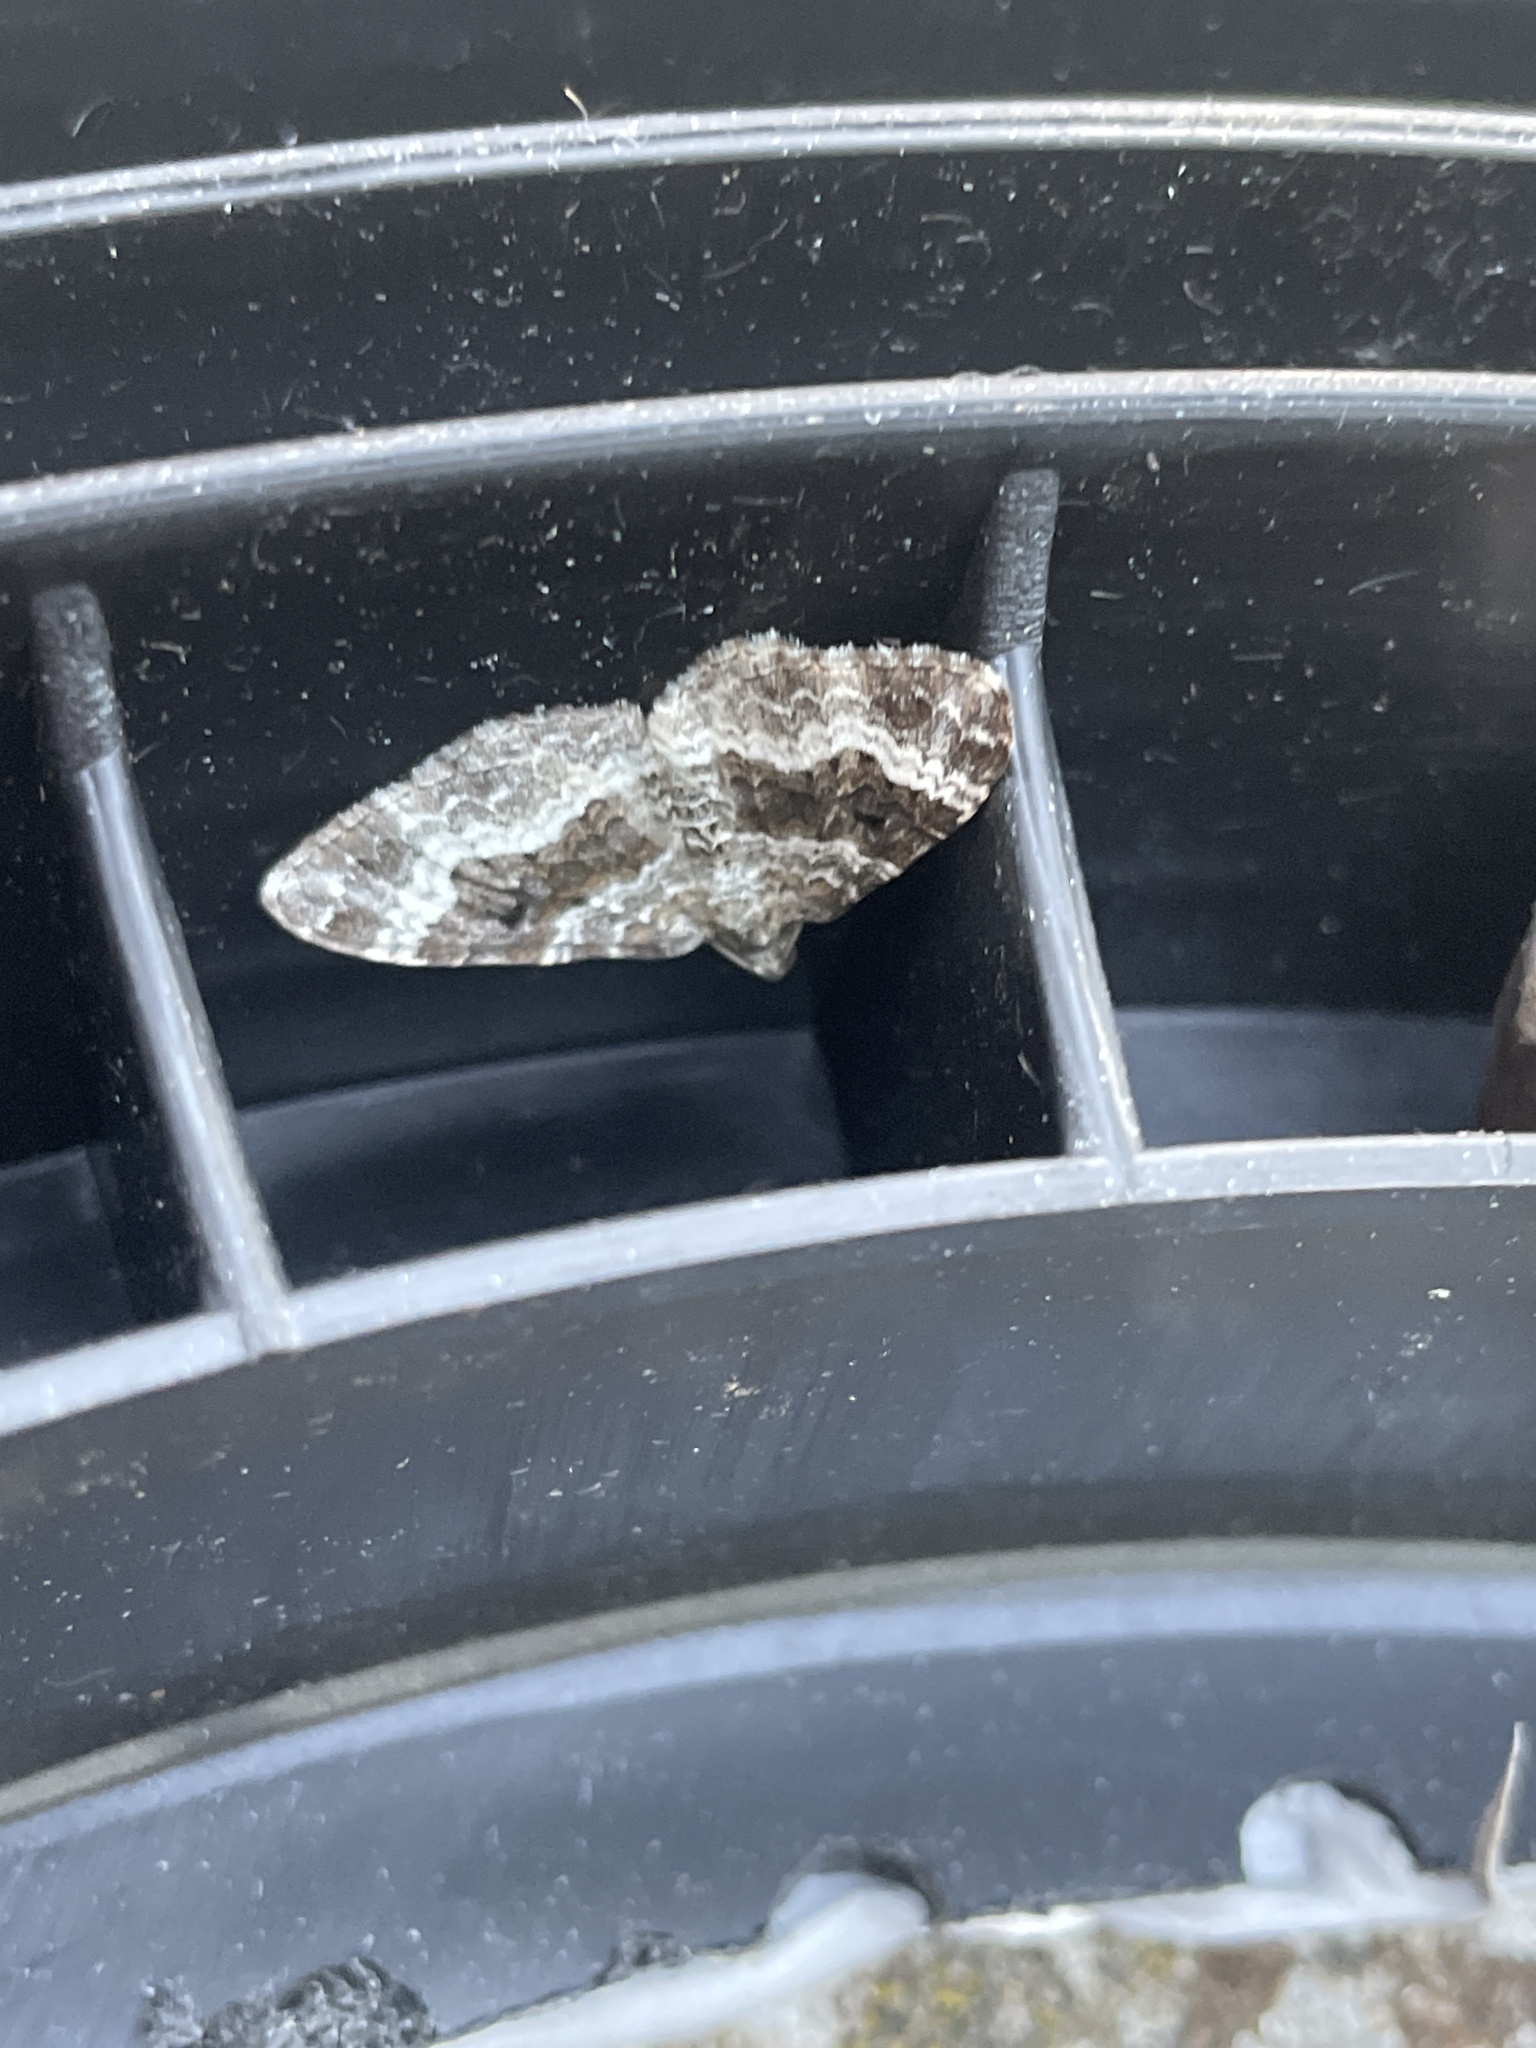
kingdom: Animalia
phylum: Arthropoda
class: Insecta
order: Lepidoptera
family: Geometridae
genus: Epirrhoe
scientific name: Epirrhoe alternata
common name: Common carpet
